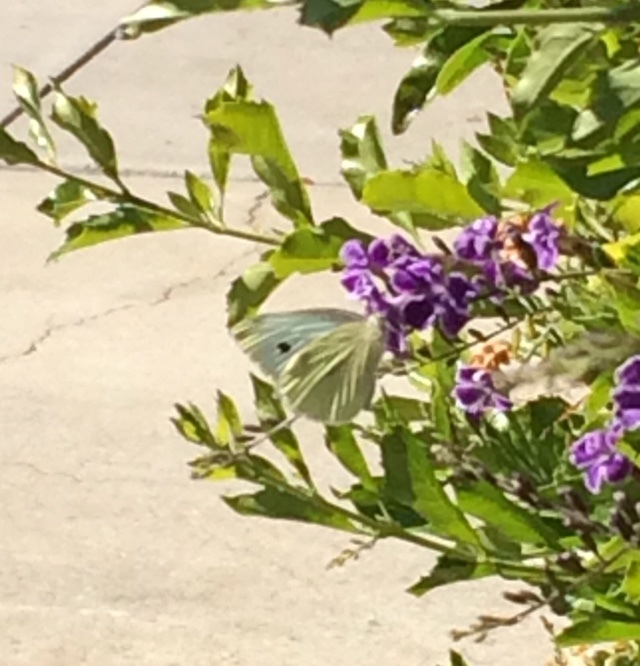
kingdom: Animalia
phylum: Arthropoda
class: Insecta
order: Lepidoptera
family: Pieridae
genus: Pieris
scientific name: Pieris rapae
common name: Small white
